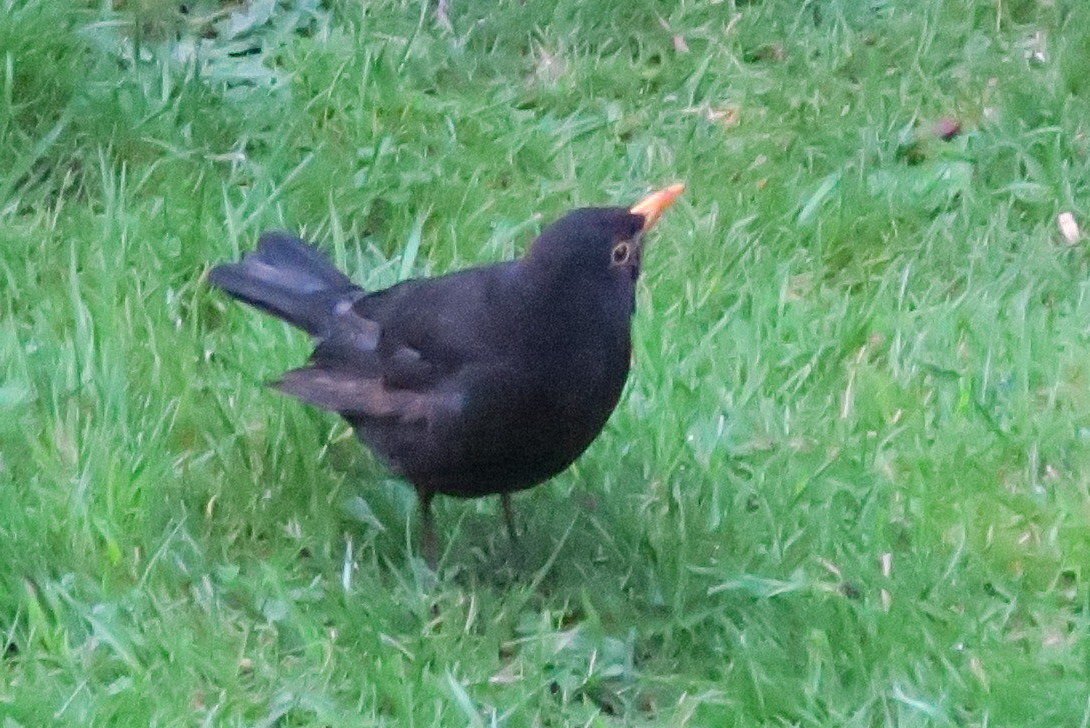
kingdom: Animalia
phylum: Chordata
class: Aves
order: Passeriformes
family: Turdidae
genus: Turdus
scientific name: Turdus merula
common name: Common blackbird
